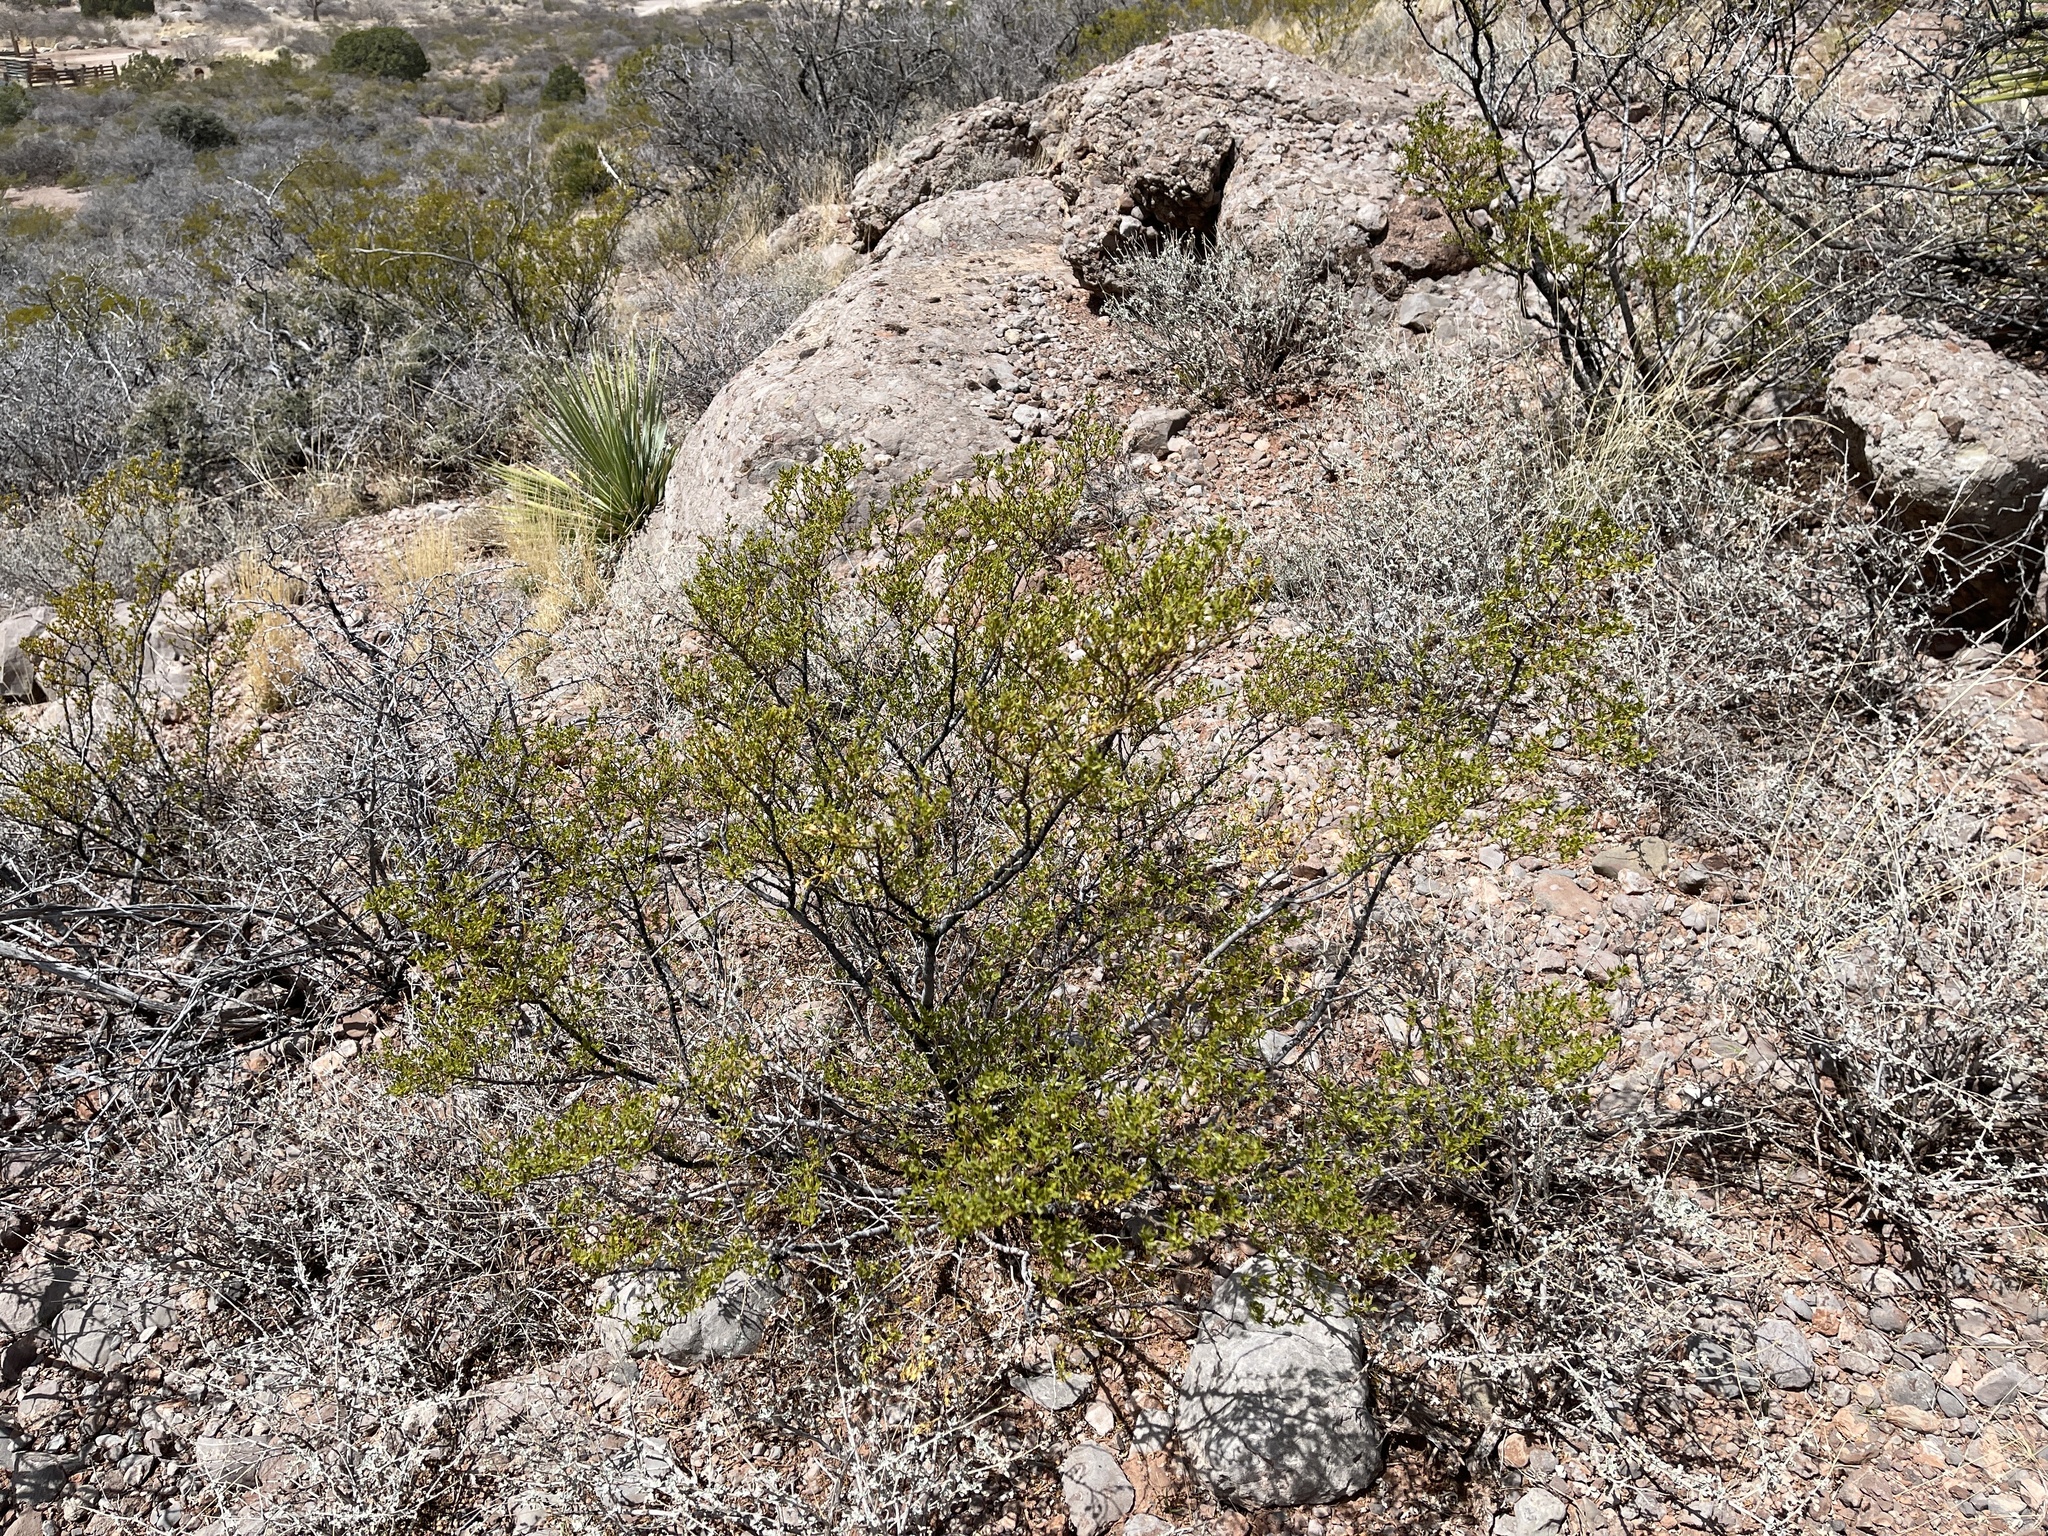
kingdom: Plantae
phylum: Tracheophyta
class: Magnoliopsida
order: Zygophyllales
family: Zygophyllaceae
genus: Larrea
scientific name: Larrea tridentata
